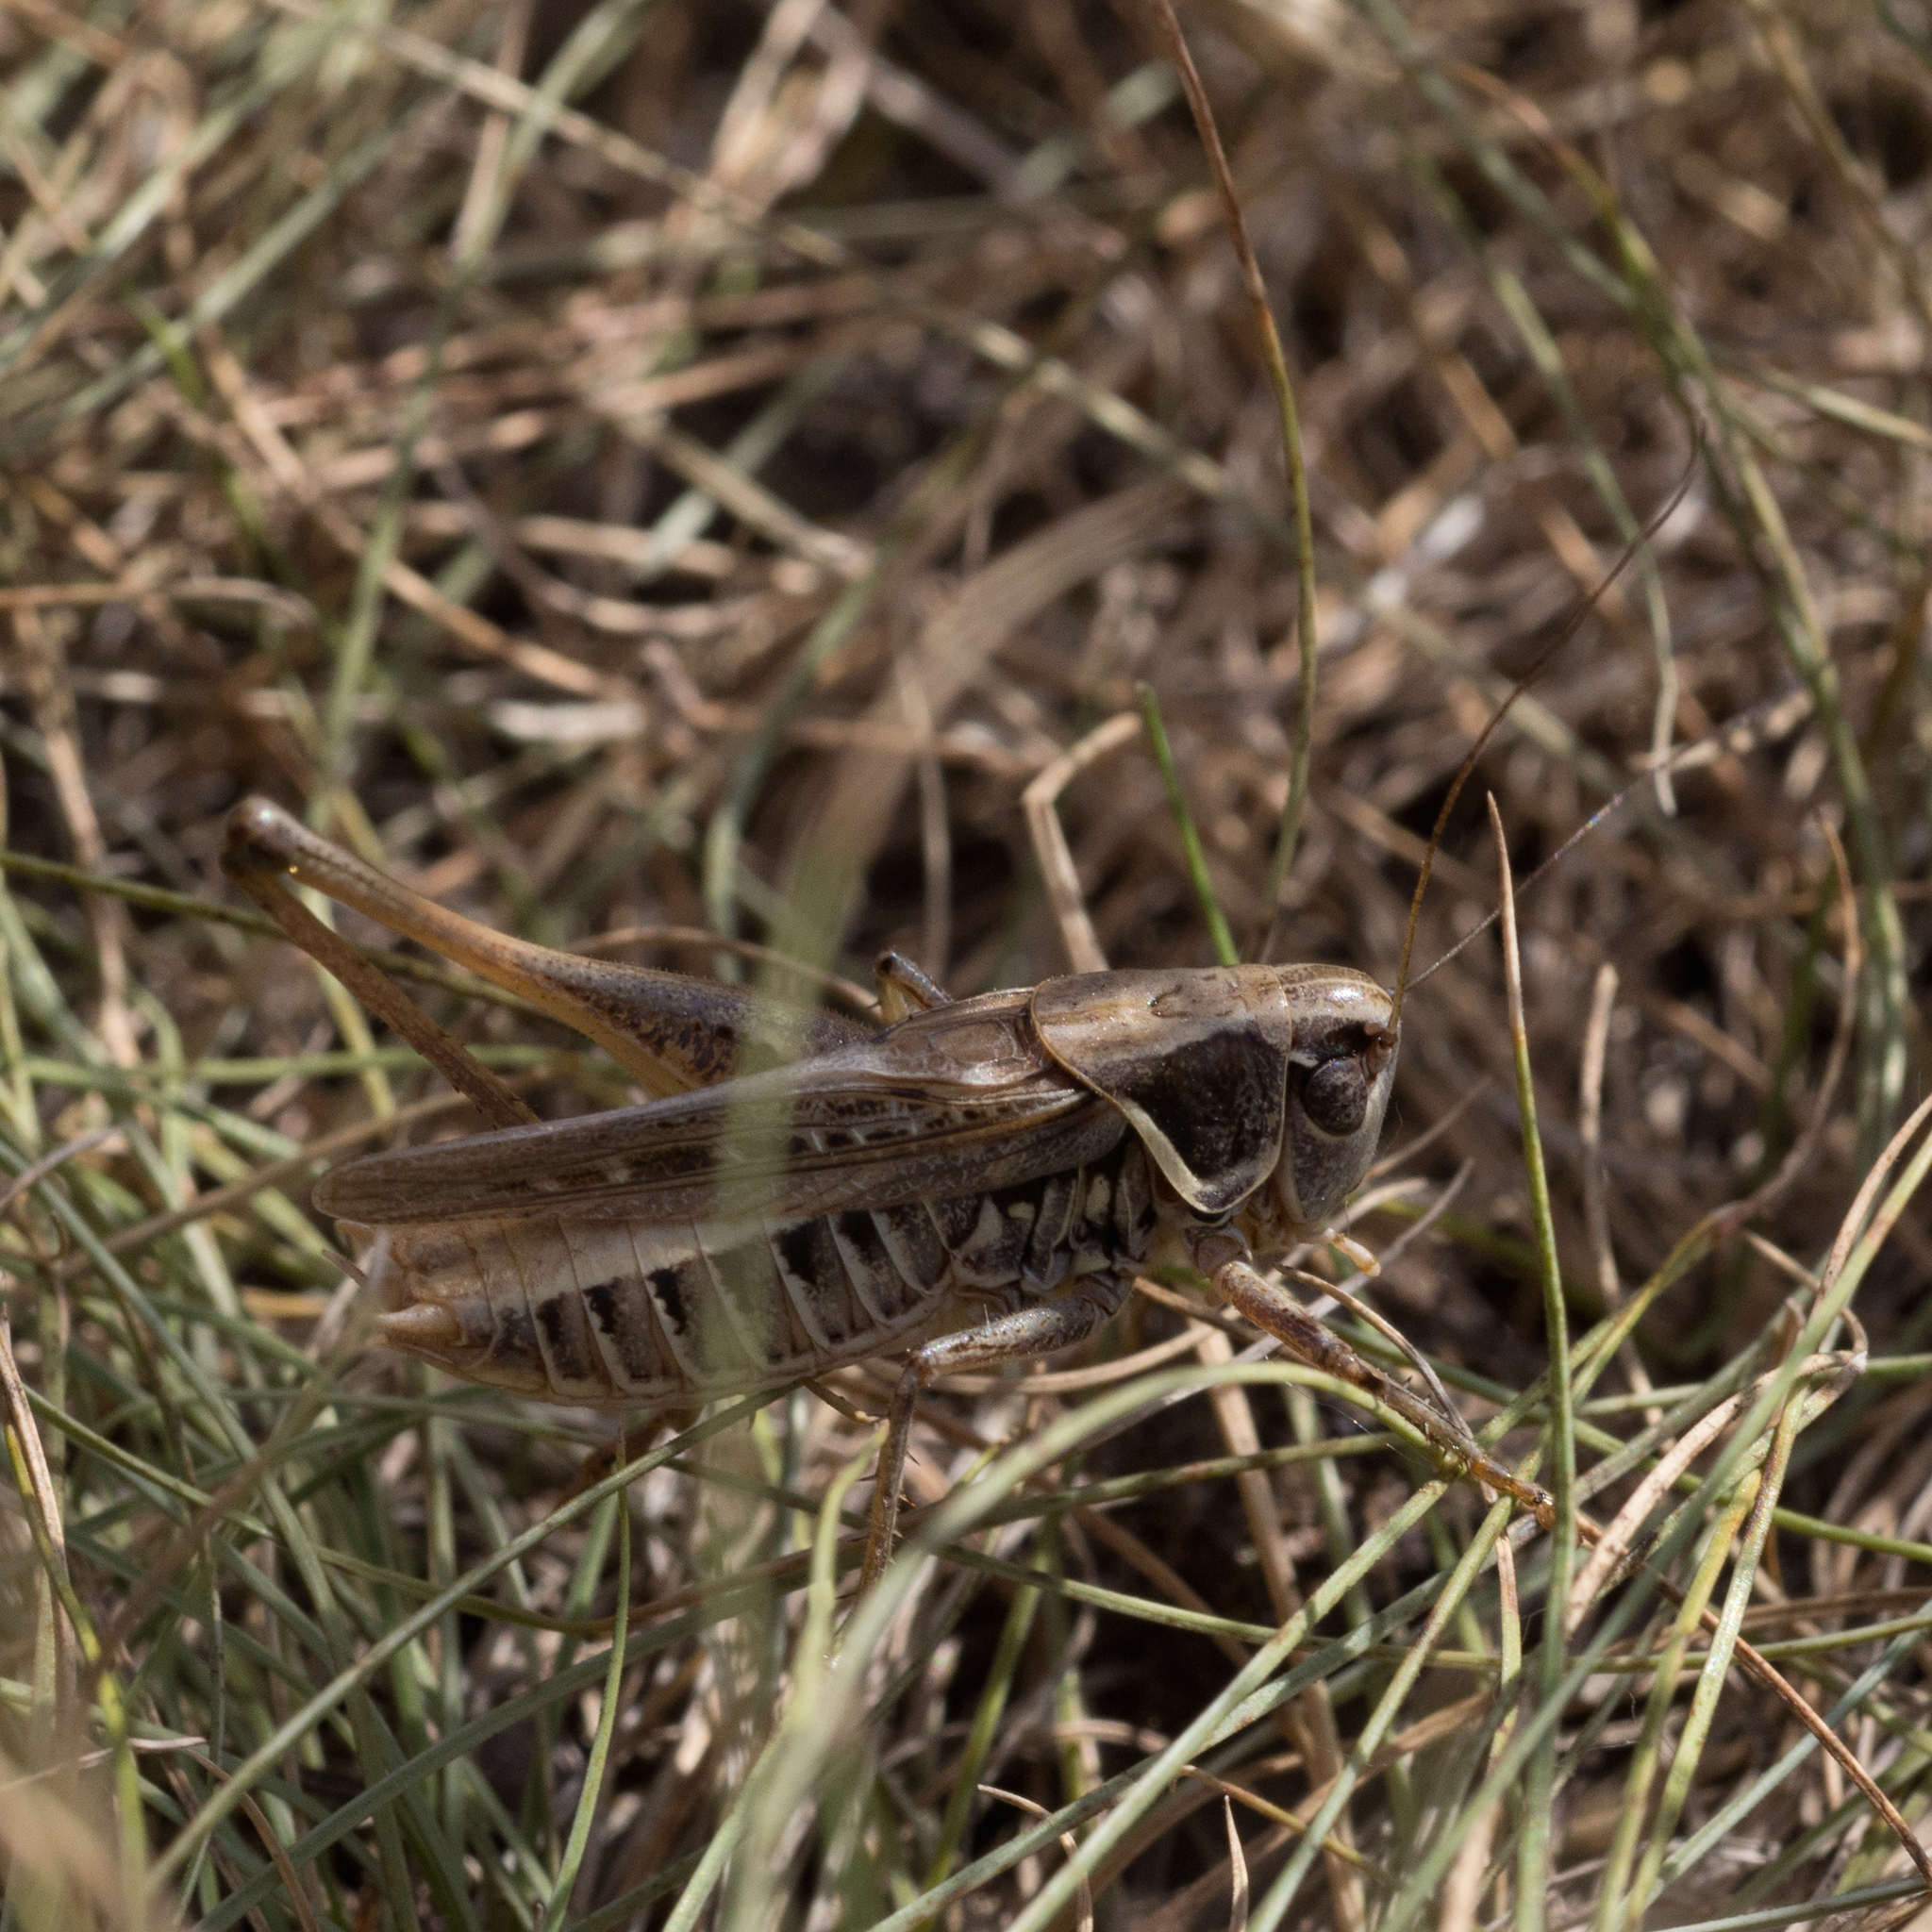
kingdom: Animalia
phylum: Arthropoda
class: Insecta
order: Orthoptera
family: Tettigoniidae
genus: Montana
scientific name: Montana montana
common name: Steppe bush-cricket
